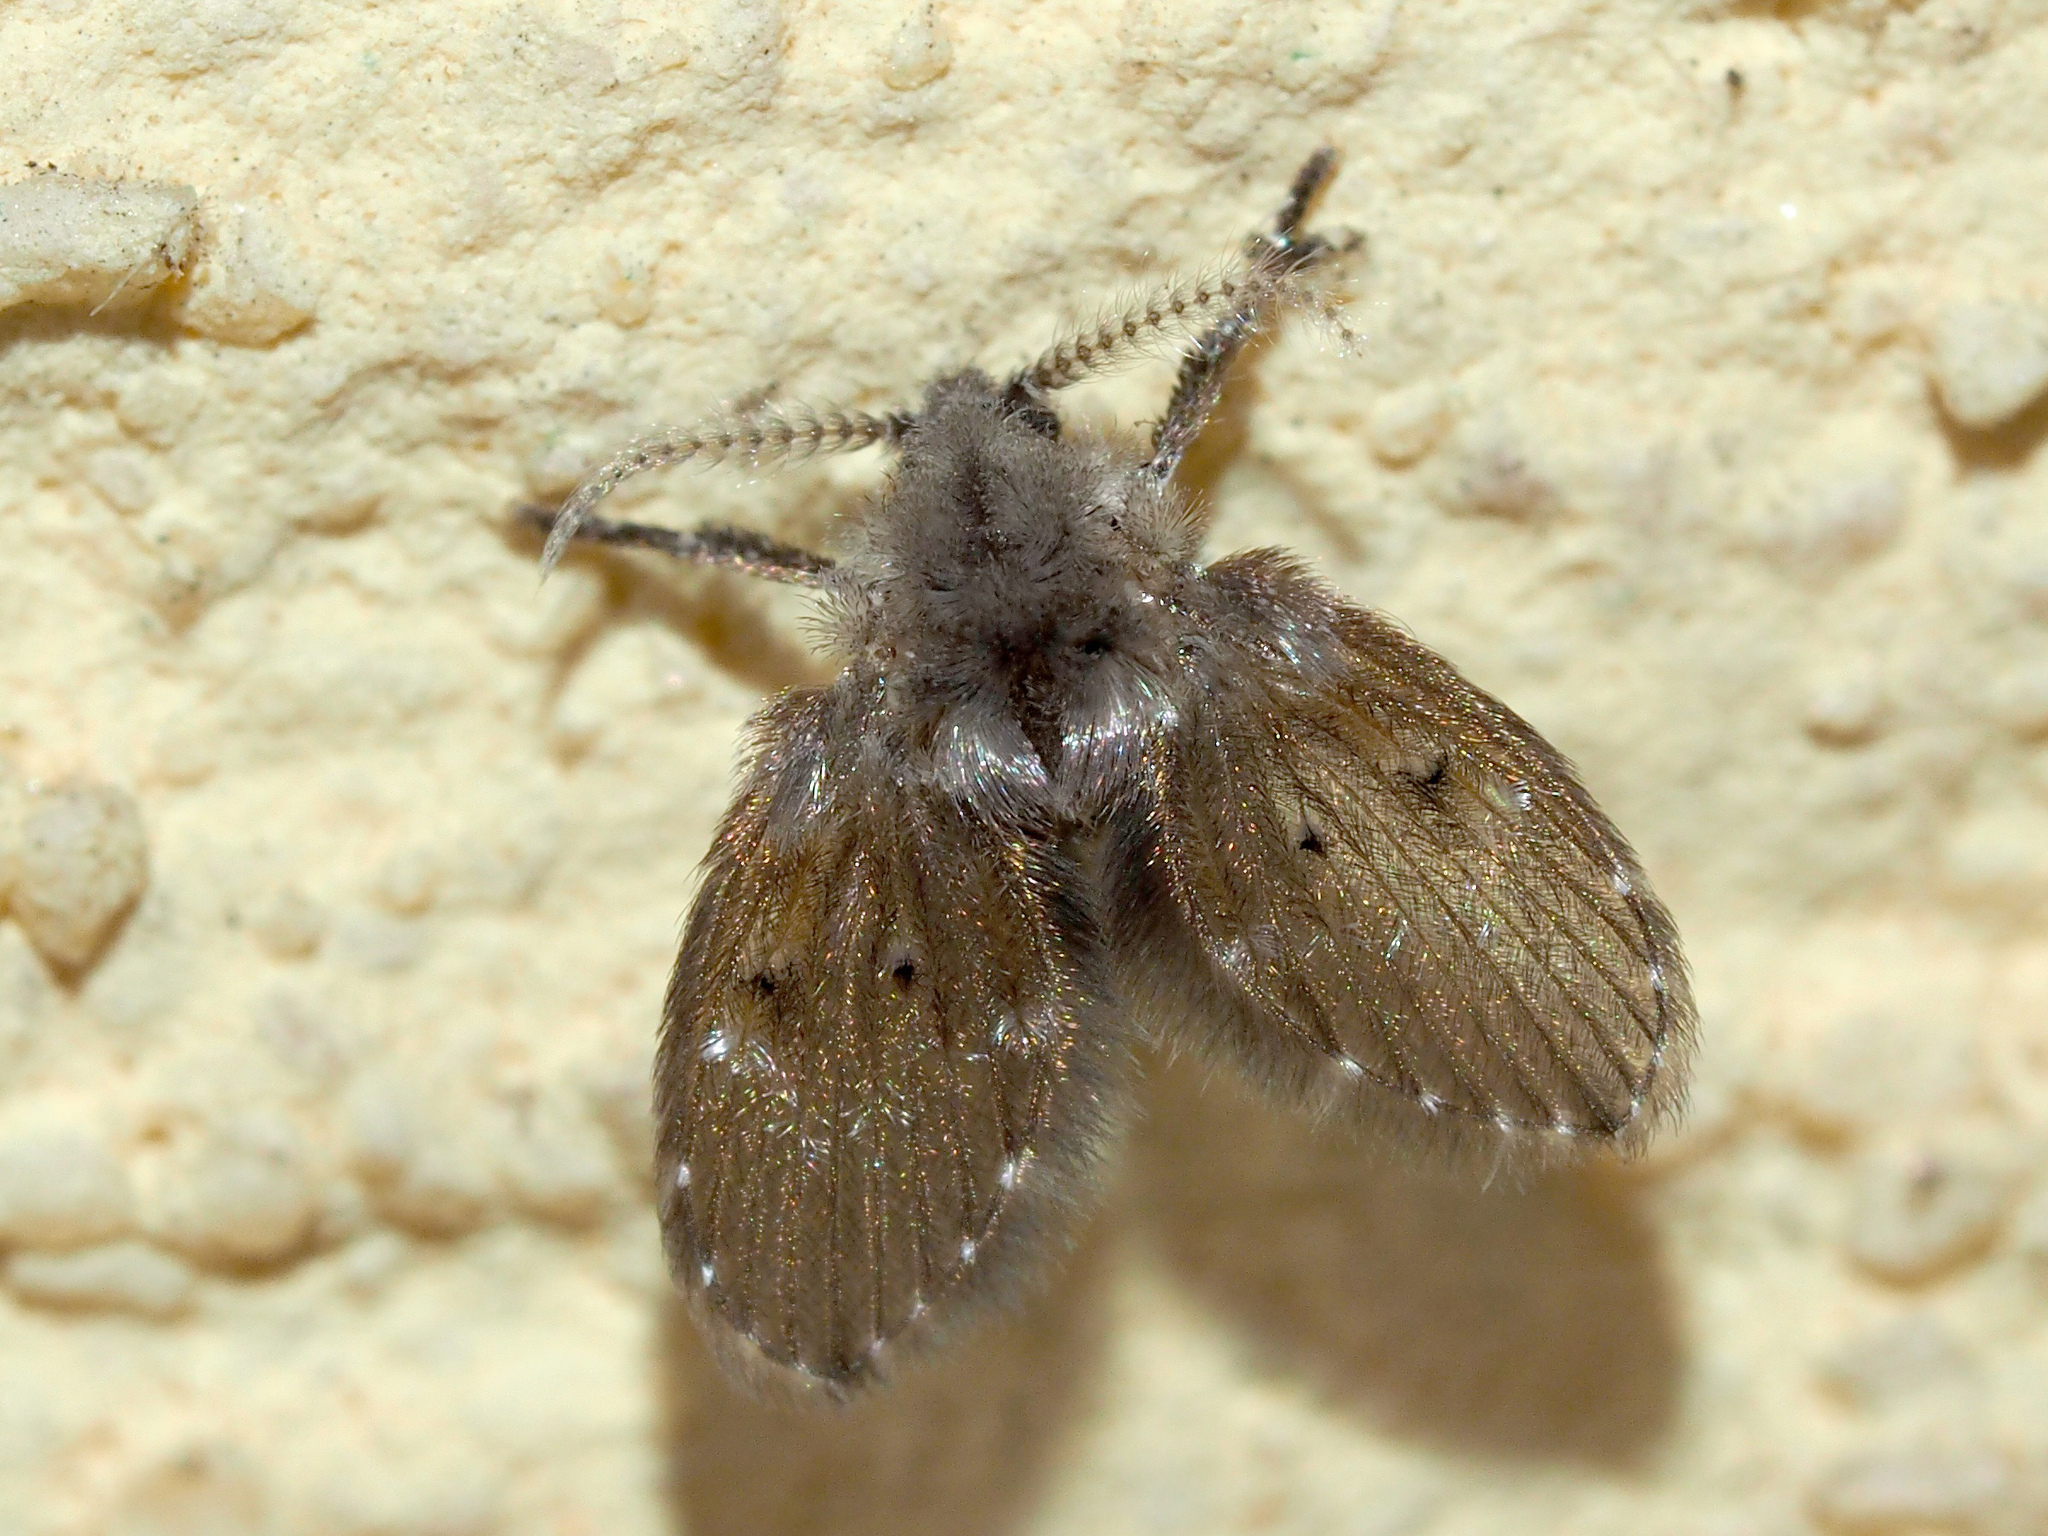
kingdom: Animalia
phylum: Arthropoda
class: Insecta
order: Diptera
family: Psychodidae
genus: Clogmia
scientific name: Clogmia albipunctatus
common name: White-spotted moth fly
